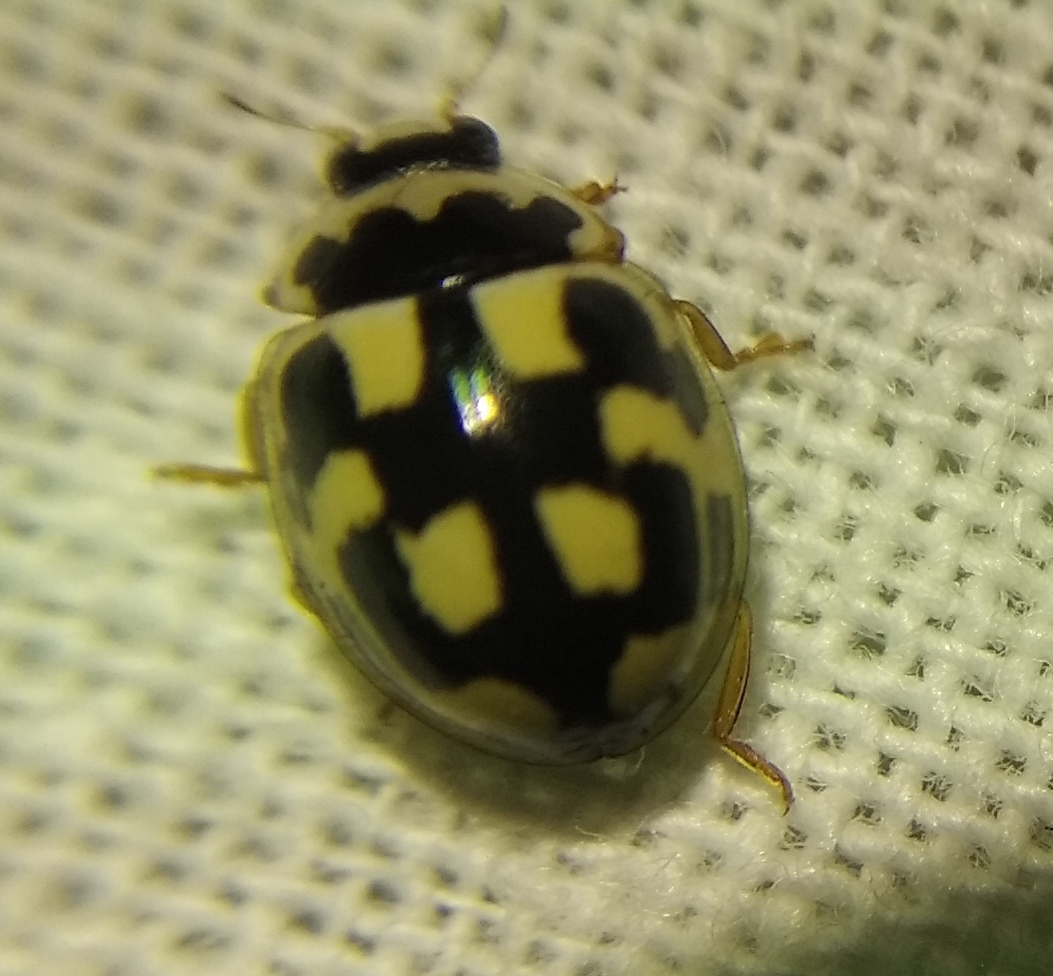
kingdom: Animalia
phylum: Arthropoda
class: Insecta
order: Coleoptera
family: Coccinellidae
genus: Propylaea
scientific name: Propylaea quatuordecimpunctata
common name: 14-spotted ladybird beetle
